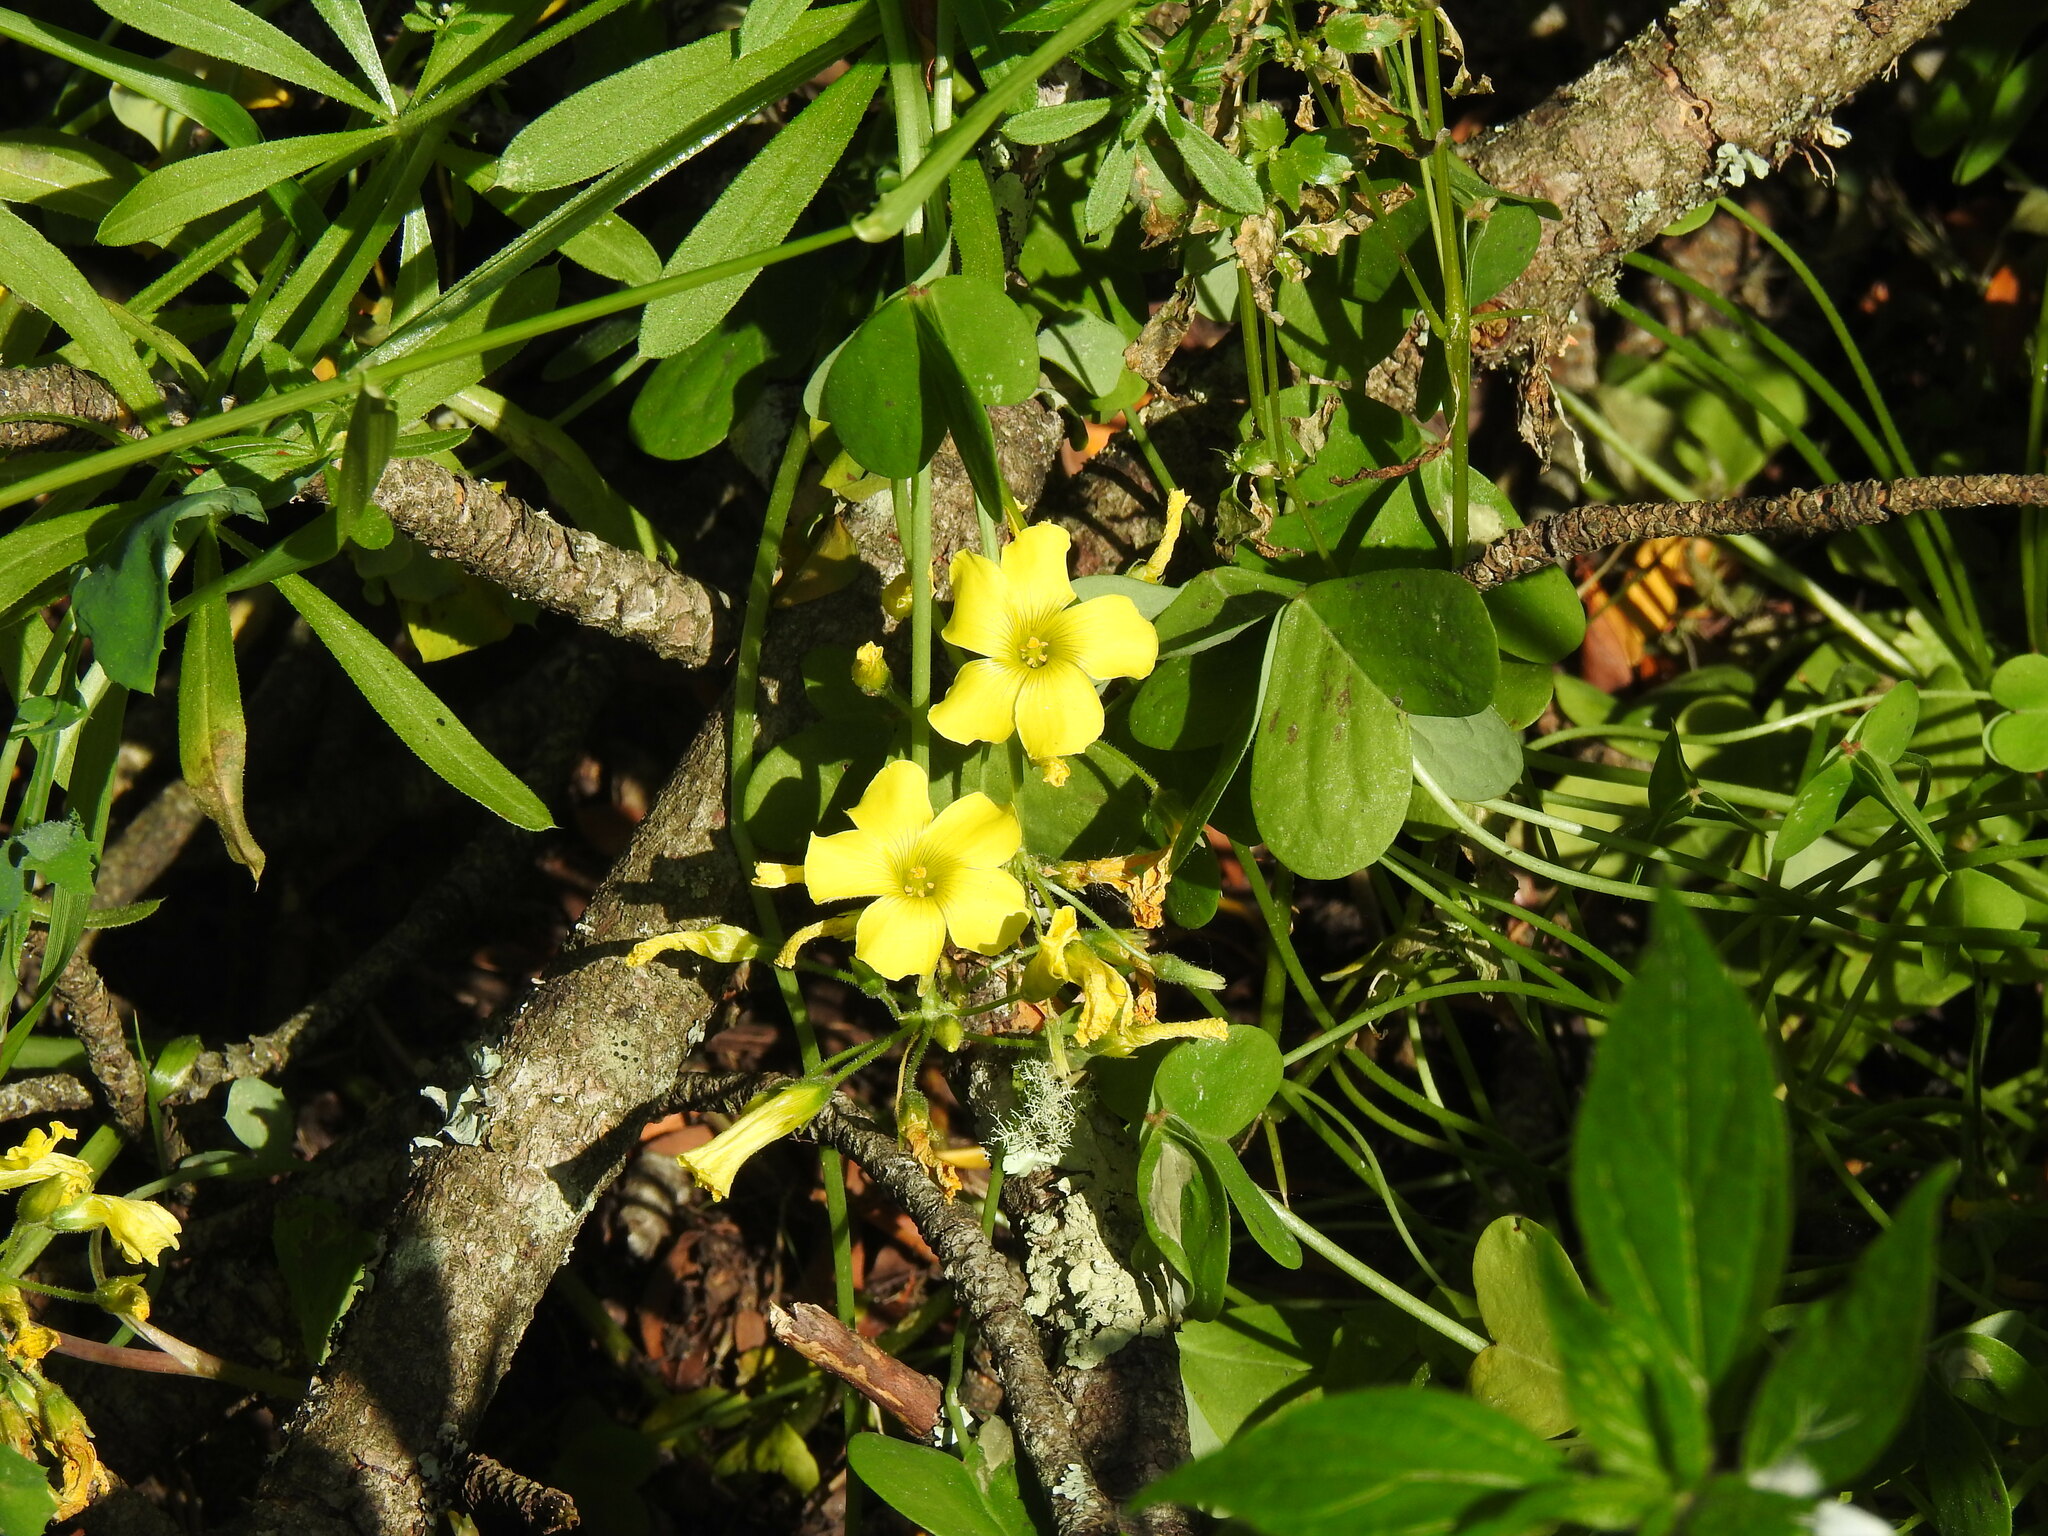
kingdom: Plantae
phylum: Tracheophyta
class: Magnoliopsida
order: Oxalidales
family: Oxalidaceae
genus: Oxalis
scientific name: Oxalis pes-caprae
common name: Bermuda-buttercup
